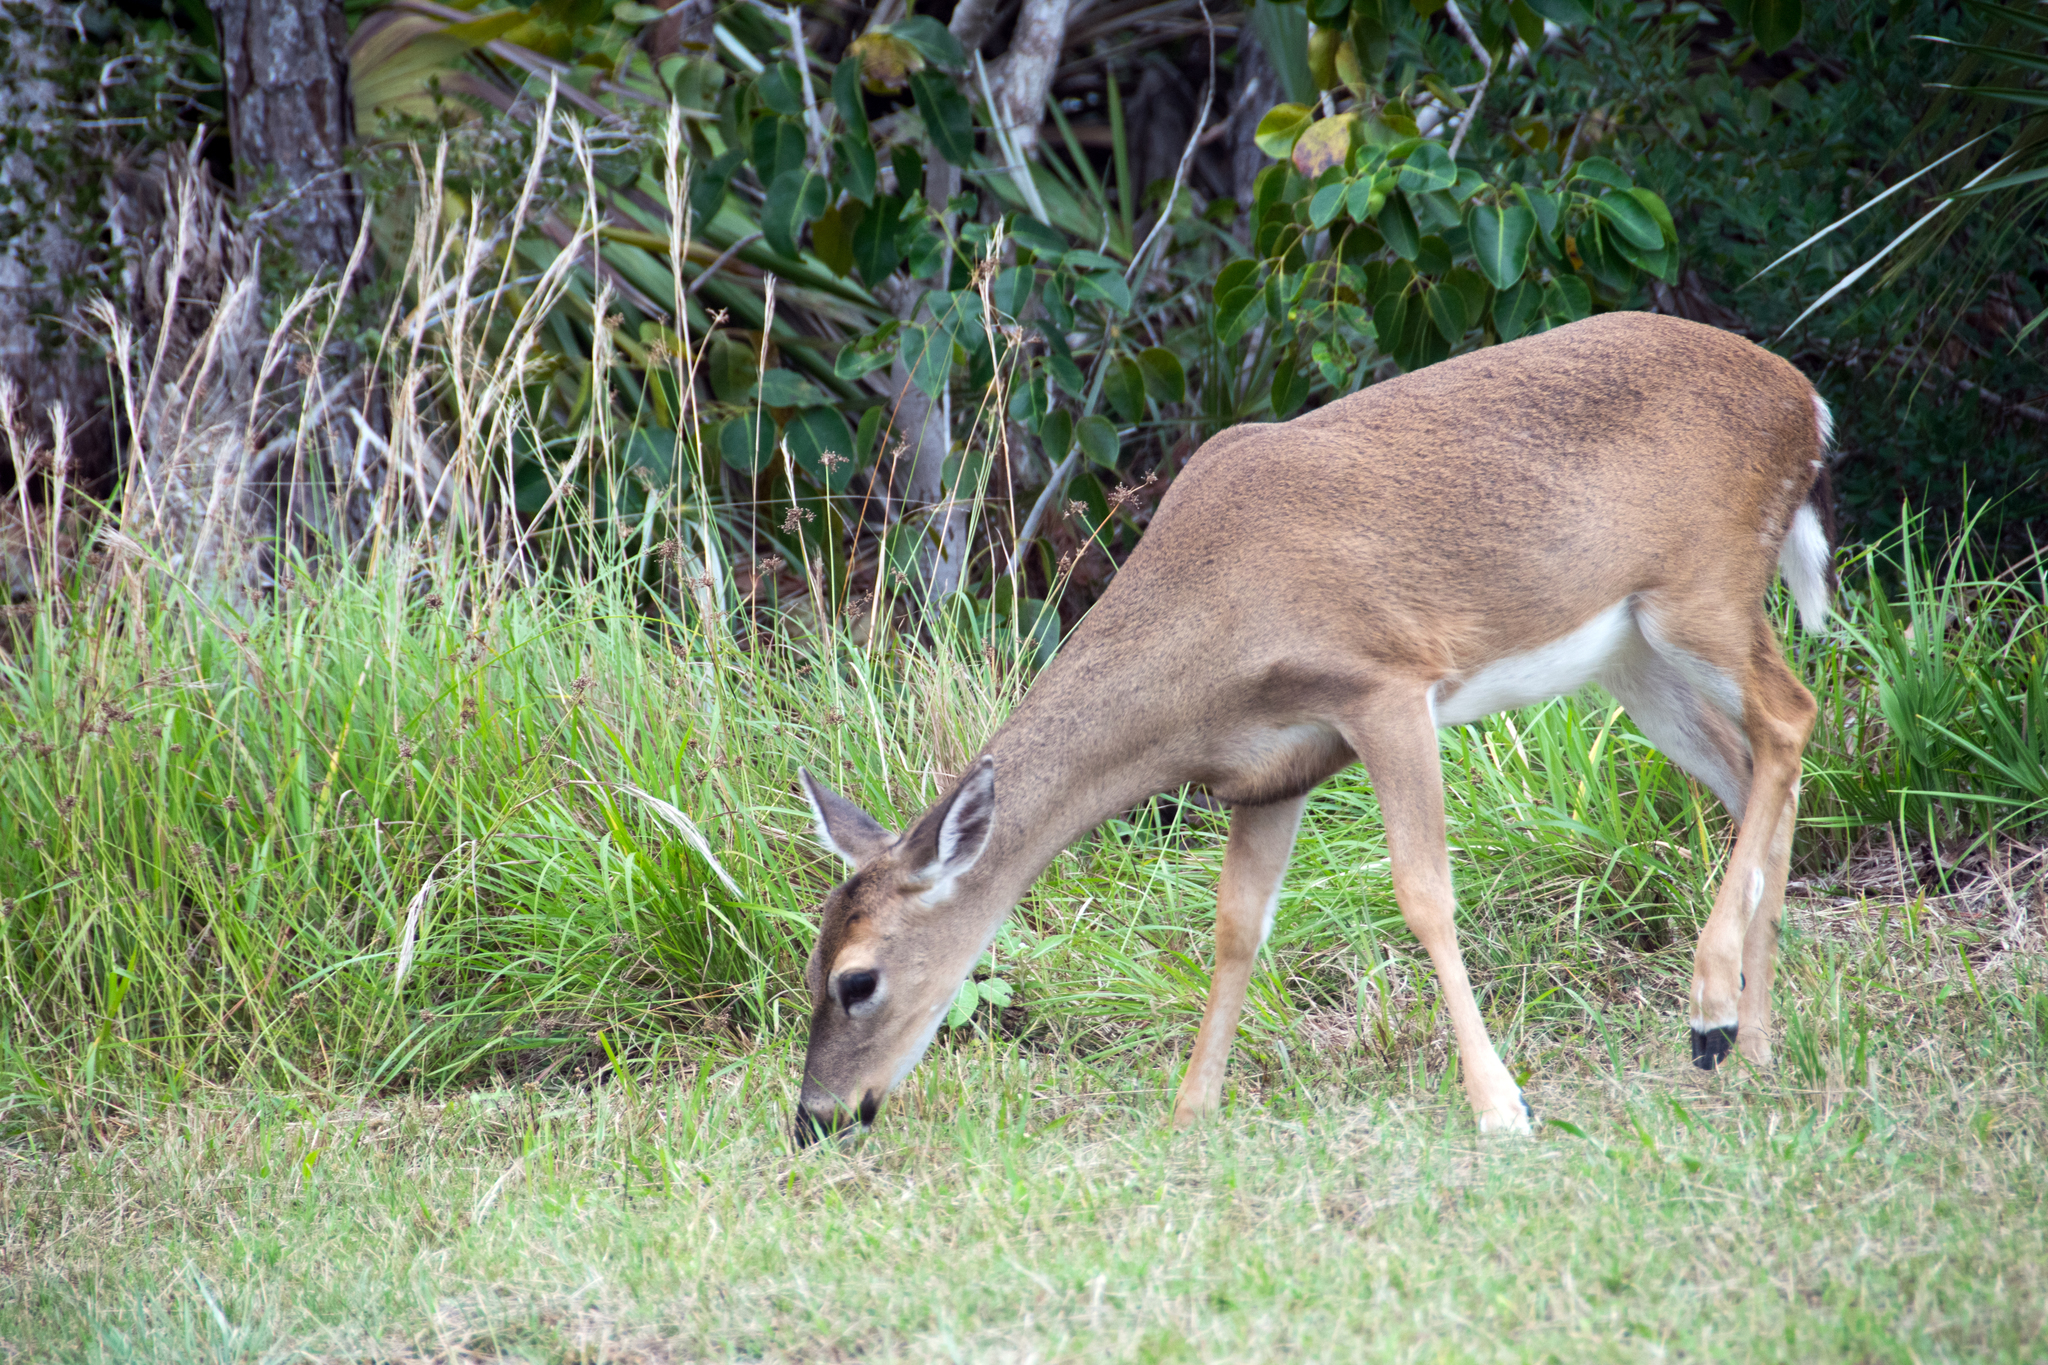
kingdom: Animalia
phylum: Chordata
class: Mammalia
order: Artiodactyla
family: Cervidae
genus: Odocoileus
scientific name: Odocoileus virginianus
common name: White-tailed deer
